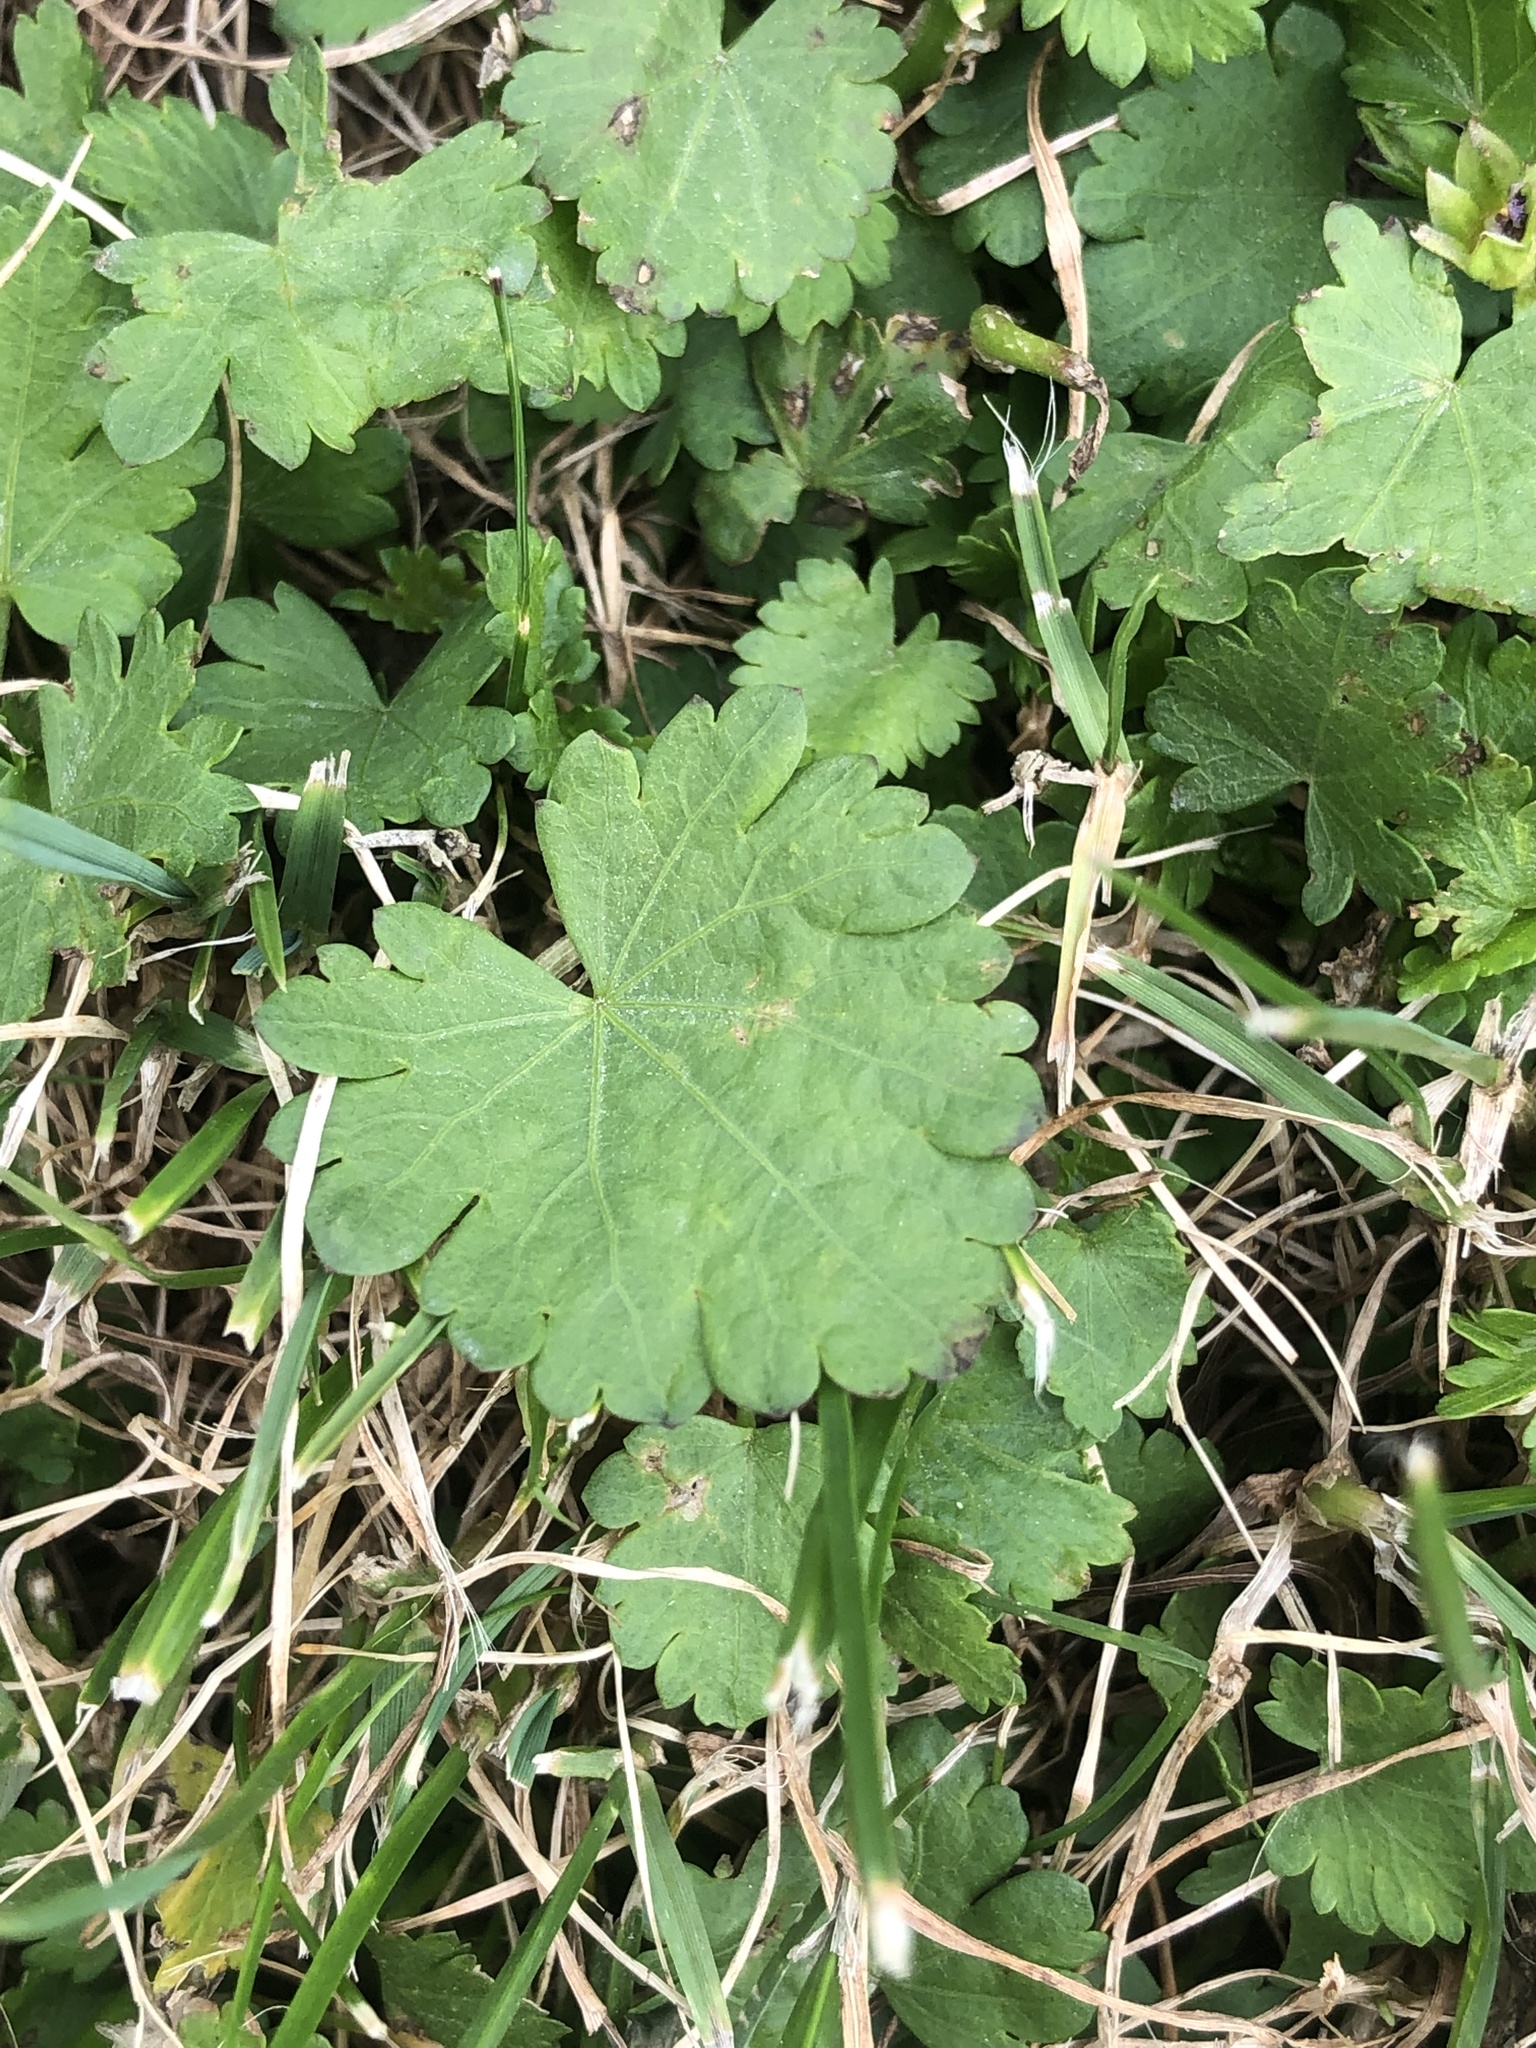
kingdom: Plantae
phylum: Tracheophyta
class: Magnoliopsida
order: Malvales
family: Malvaceae
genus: Modiola
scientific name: Modiola caroliniana
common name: Carolina bristlemallow
